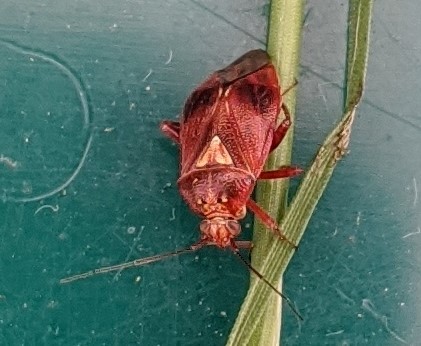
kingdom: Animalia
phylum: Arthropoda
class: Insecta
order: Hemiptera
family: Miridae
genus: Lygus
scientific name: Lygus rubroclarus
